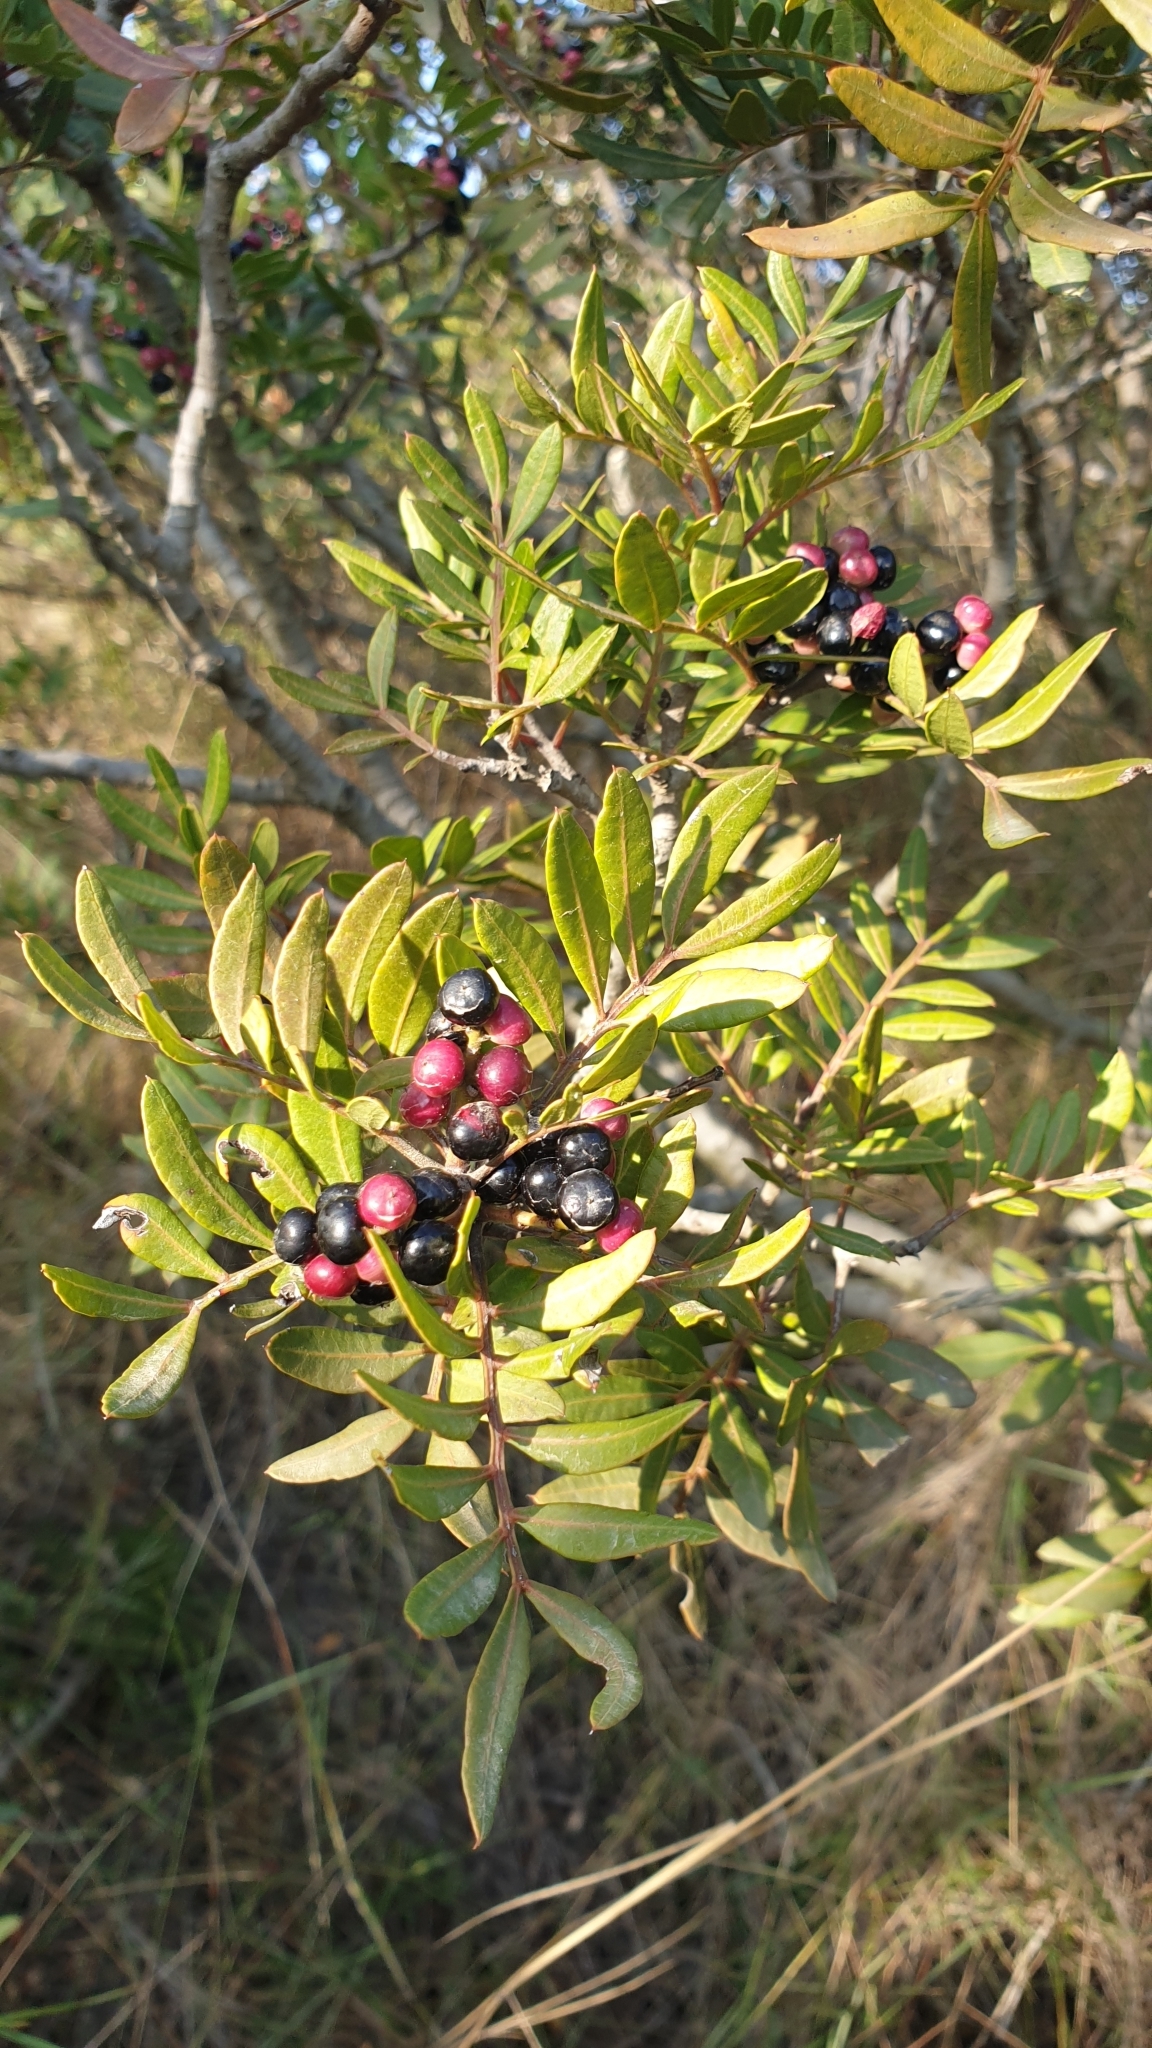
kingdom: Plantae
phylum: Tracheophyta
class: Magnoliopsida
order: Sapindales
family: Anacardiaceae
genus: Pistacia
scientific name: Pistacia lentiscus
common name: Lentisk
